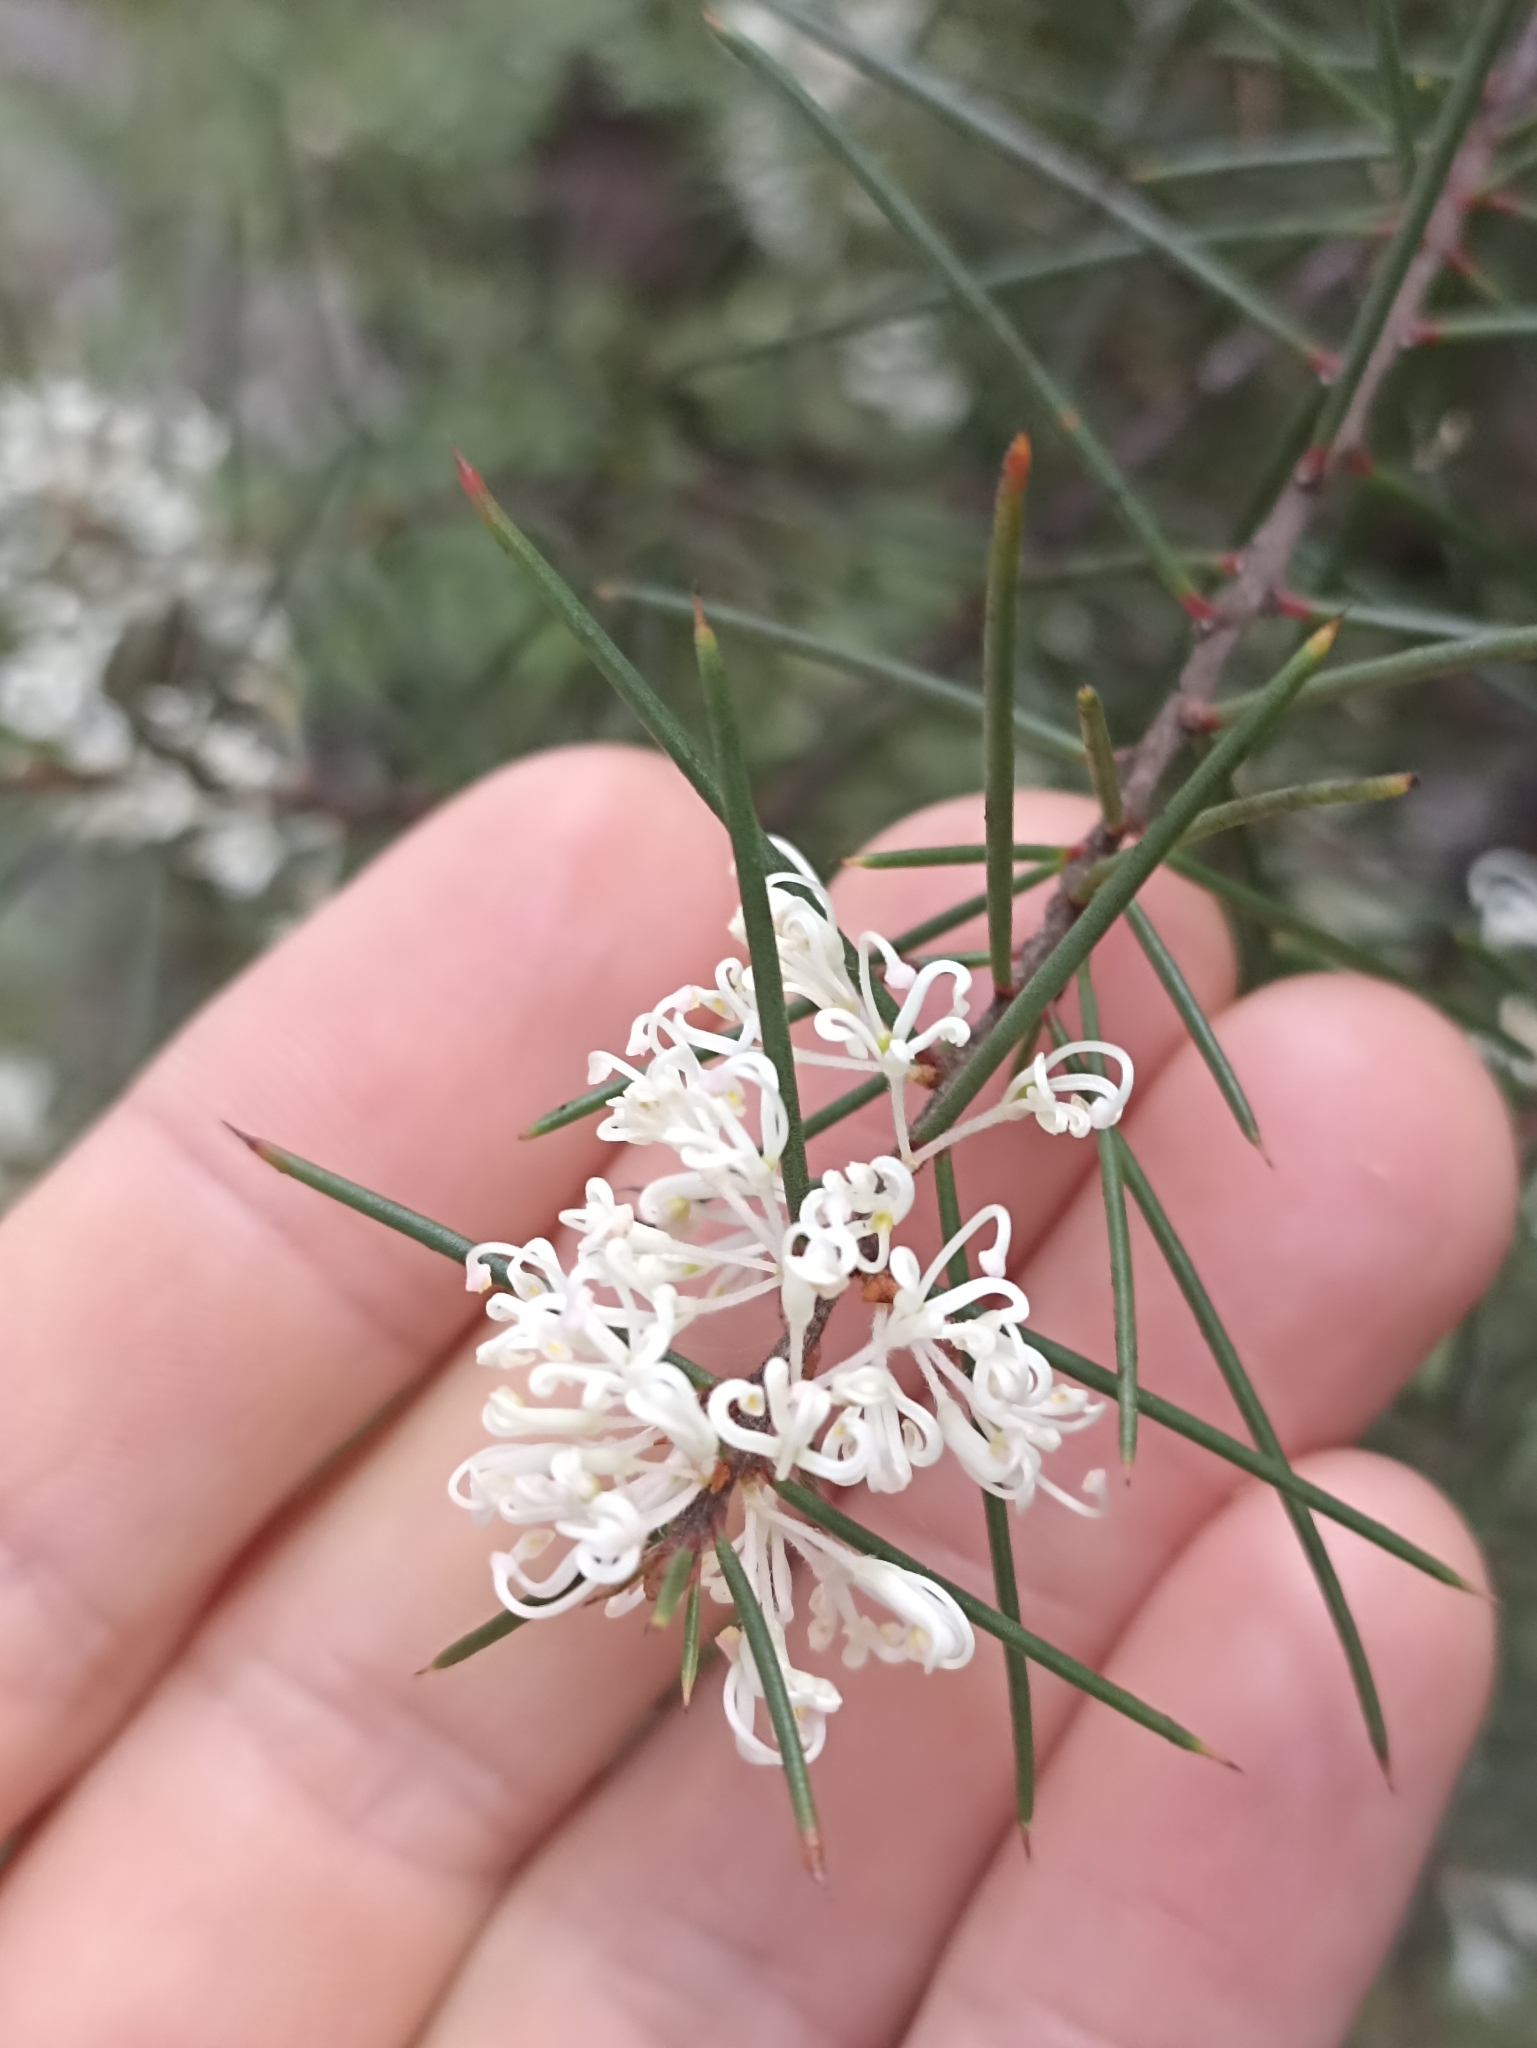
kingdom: Plantae
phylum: Tracheophyta
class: Magnoliopsida
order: Proteales
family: Proteaceae
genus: Hakea
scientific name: Hakea sericea
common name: Needle bush
